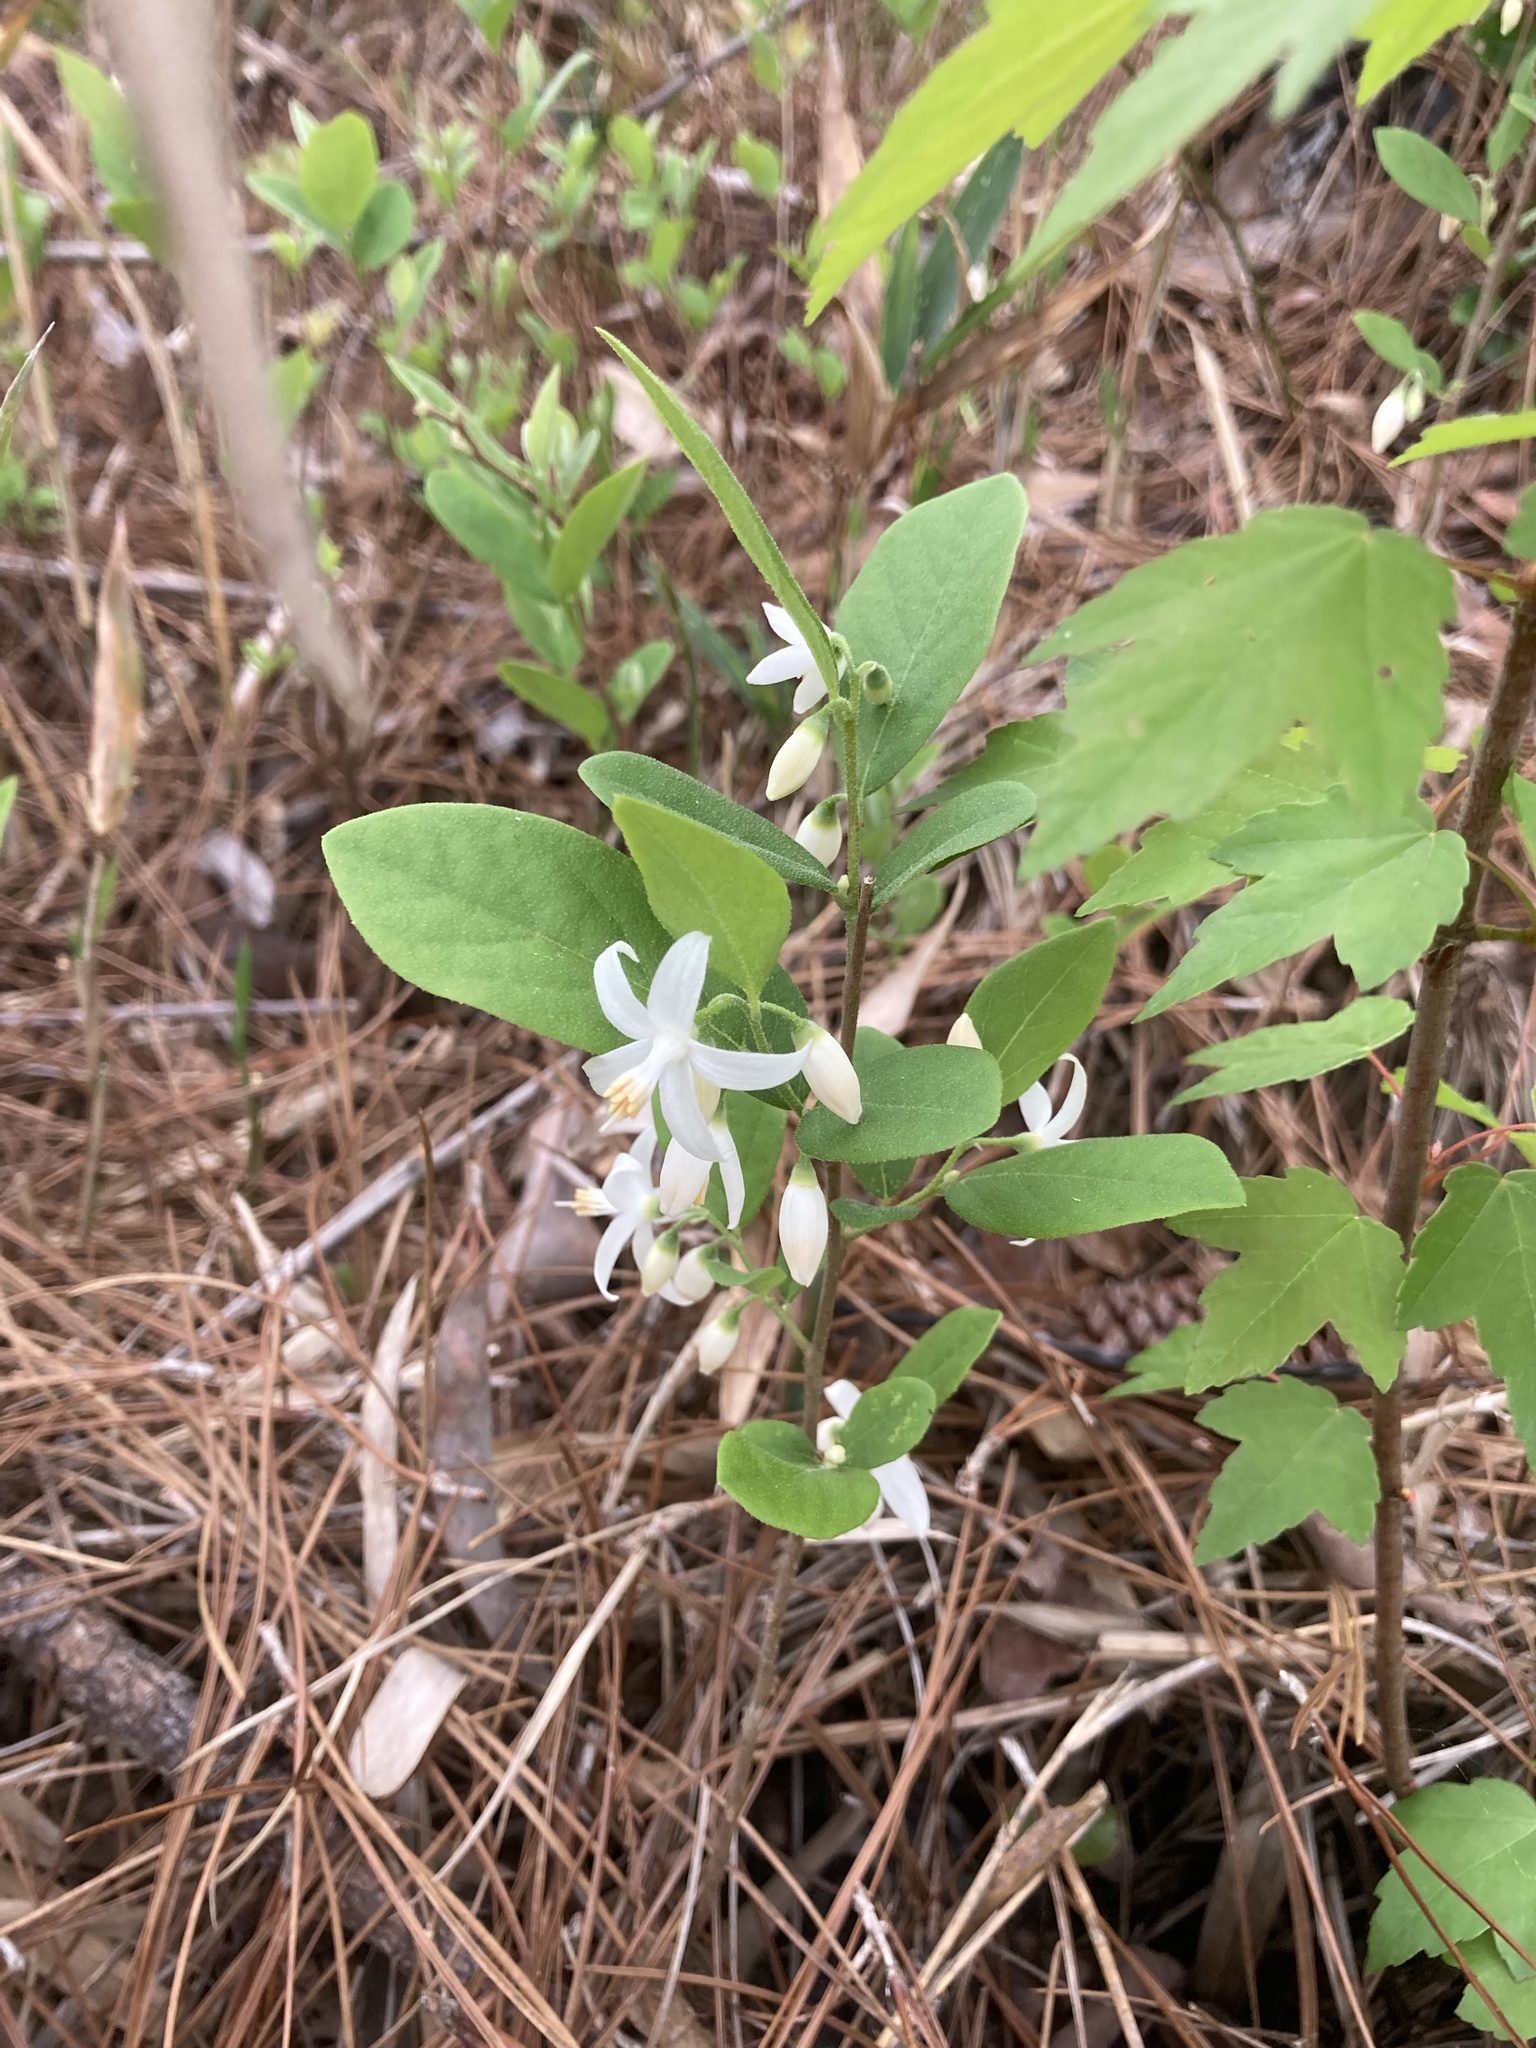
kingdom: Plantae
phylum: Tracheophyta
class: Magnoliopsida
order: Ericales
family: Styracaceae
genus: Styrax
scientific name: Styrax americanus
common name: American snowbell
